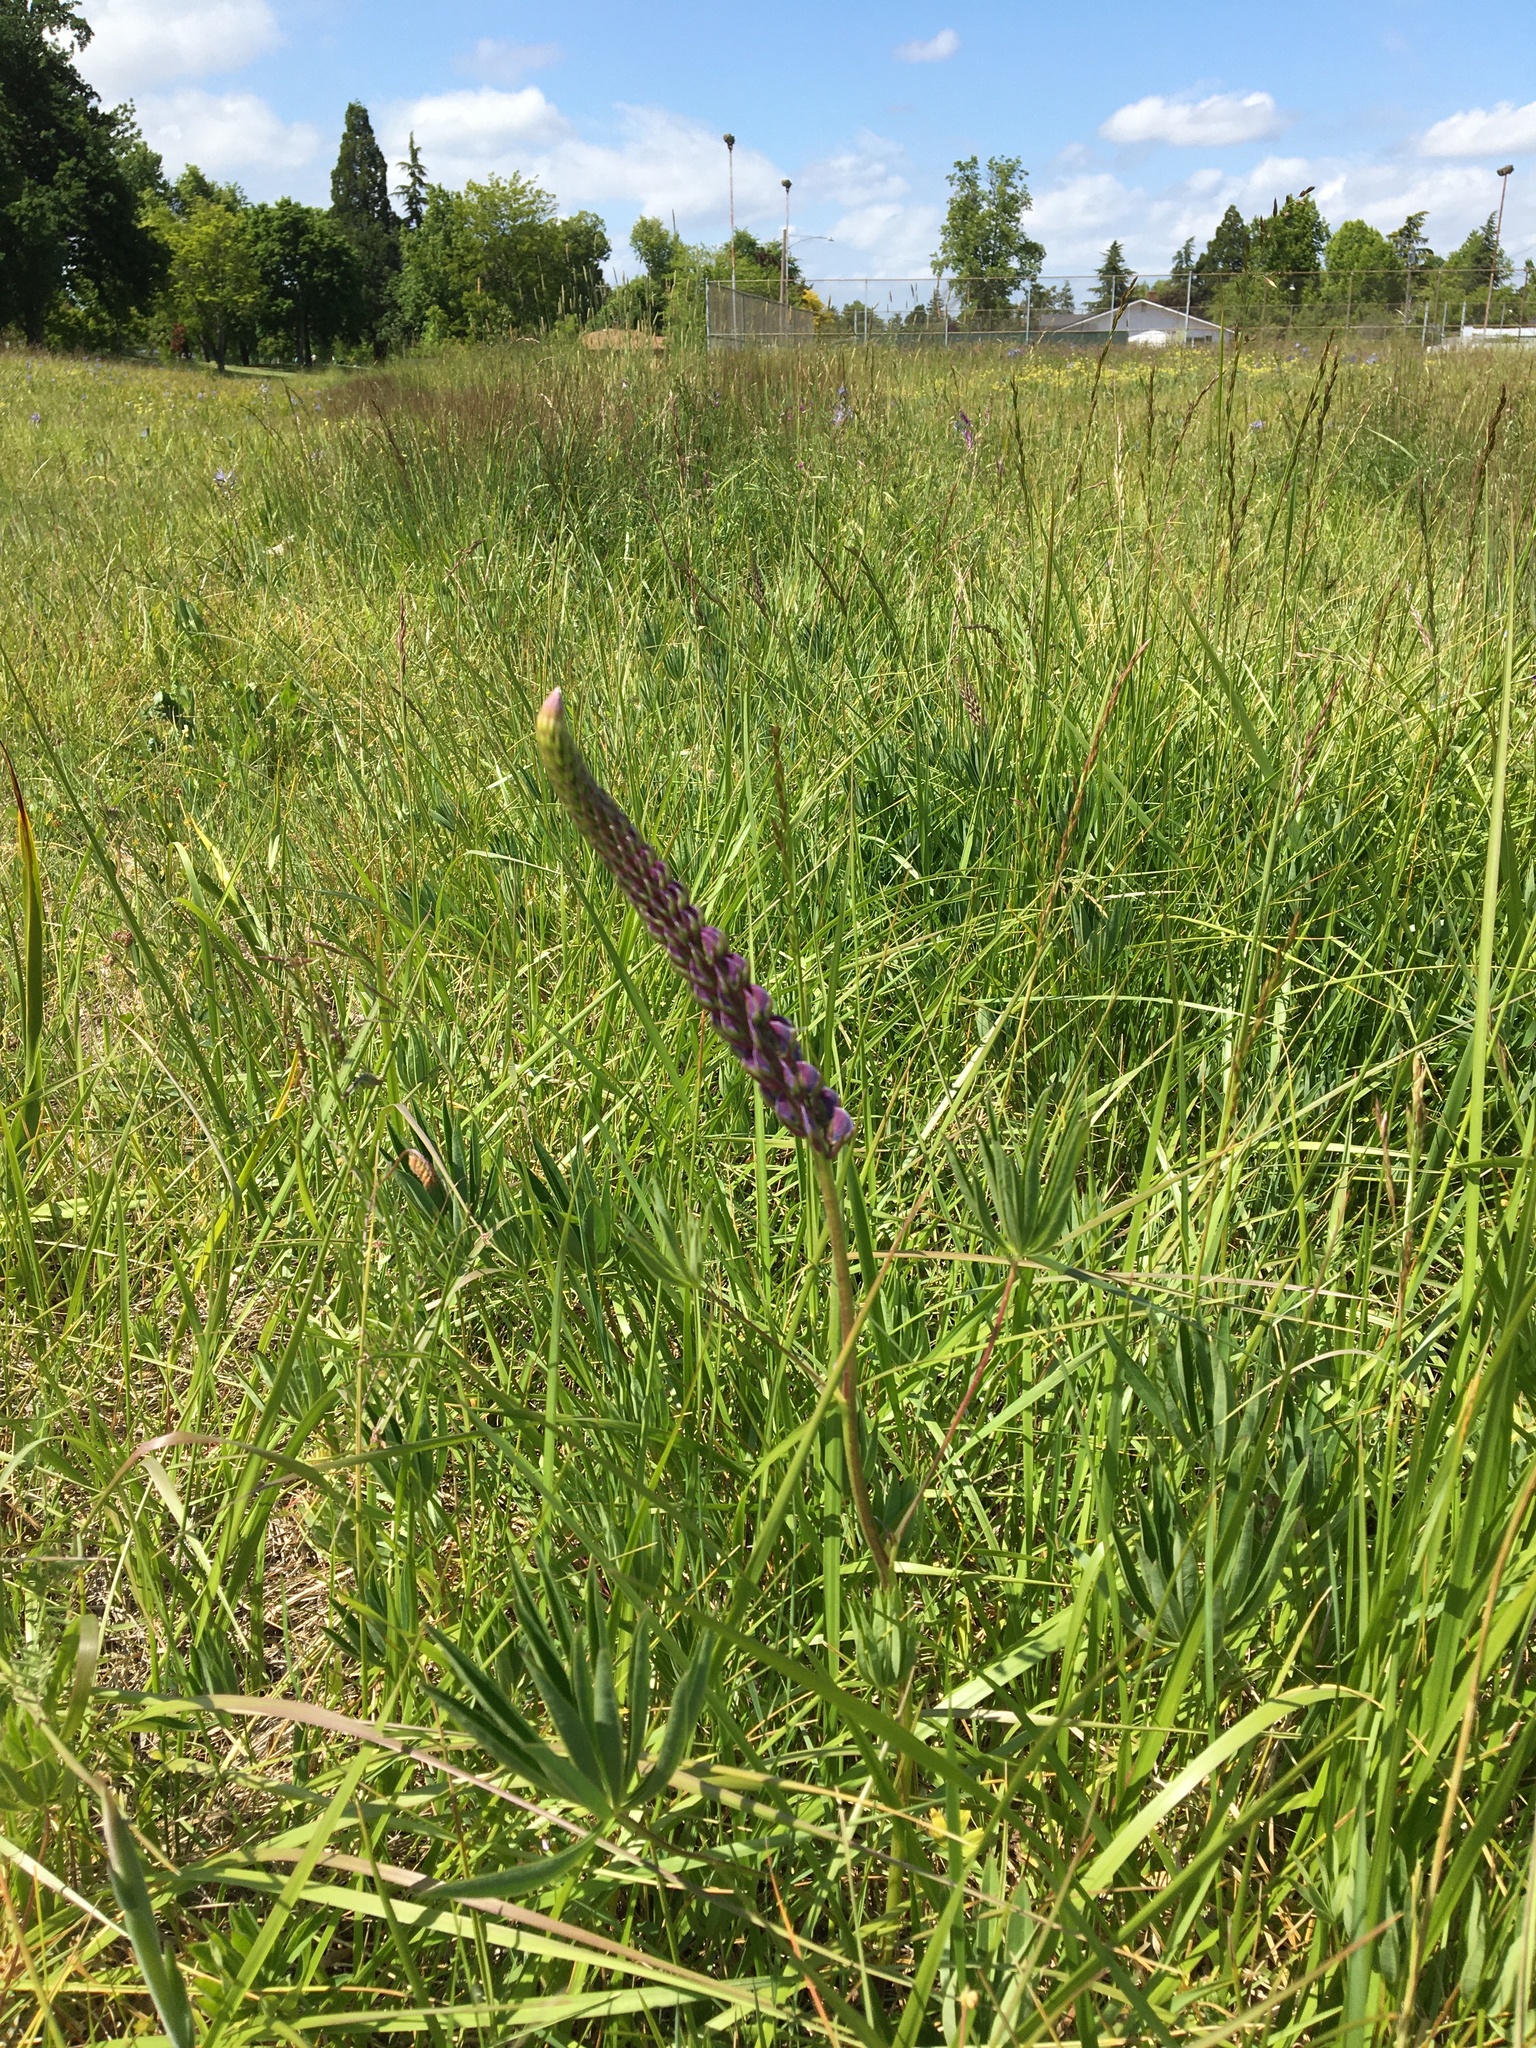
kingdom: Plantae
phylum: Tracheophyta
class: Magnoliopsida
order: Fabales
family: Fabaceae
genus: Lupinus
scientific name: Lupinus polyphyllus
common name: Garden lupin
